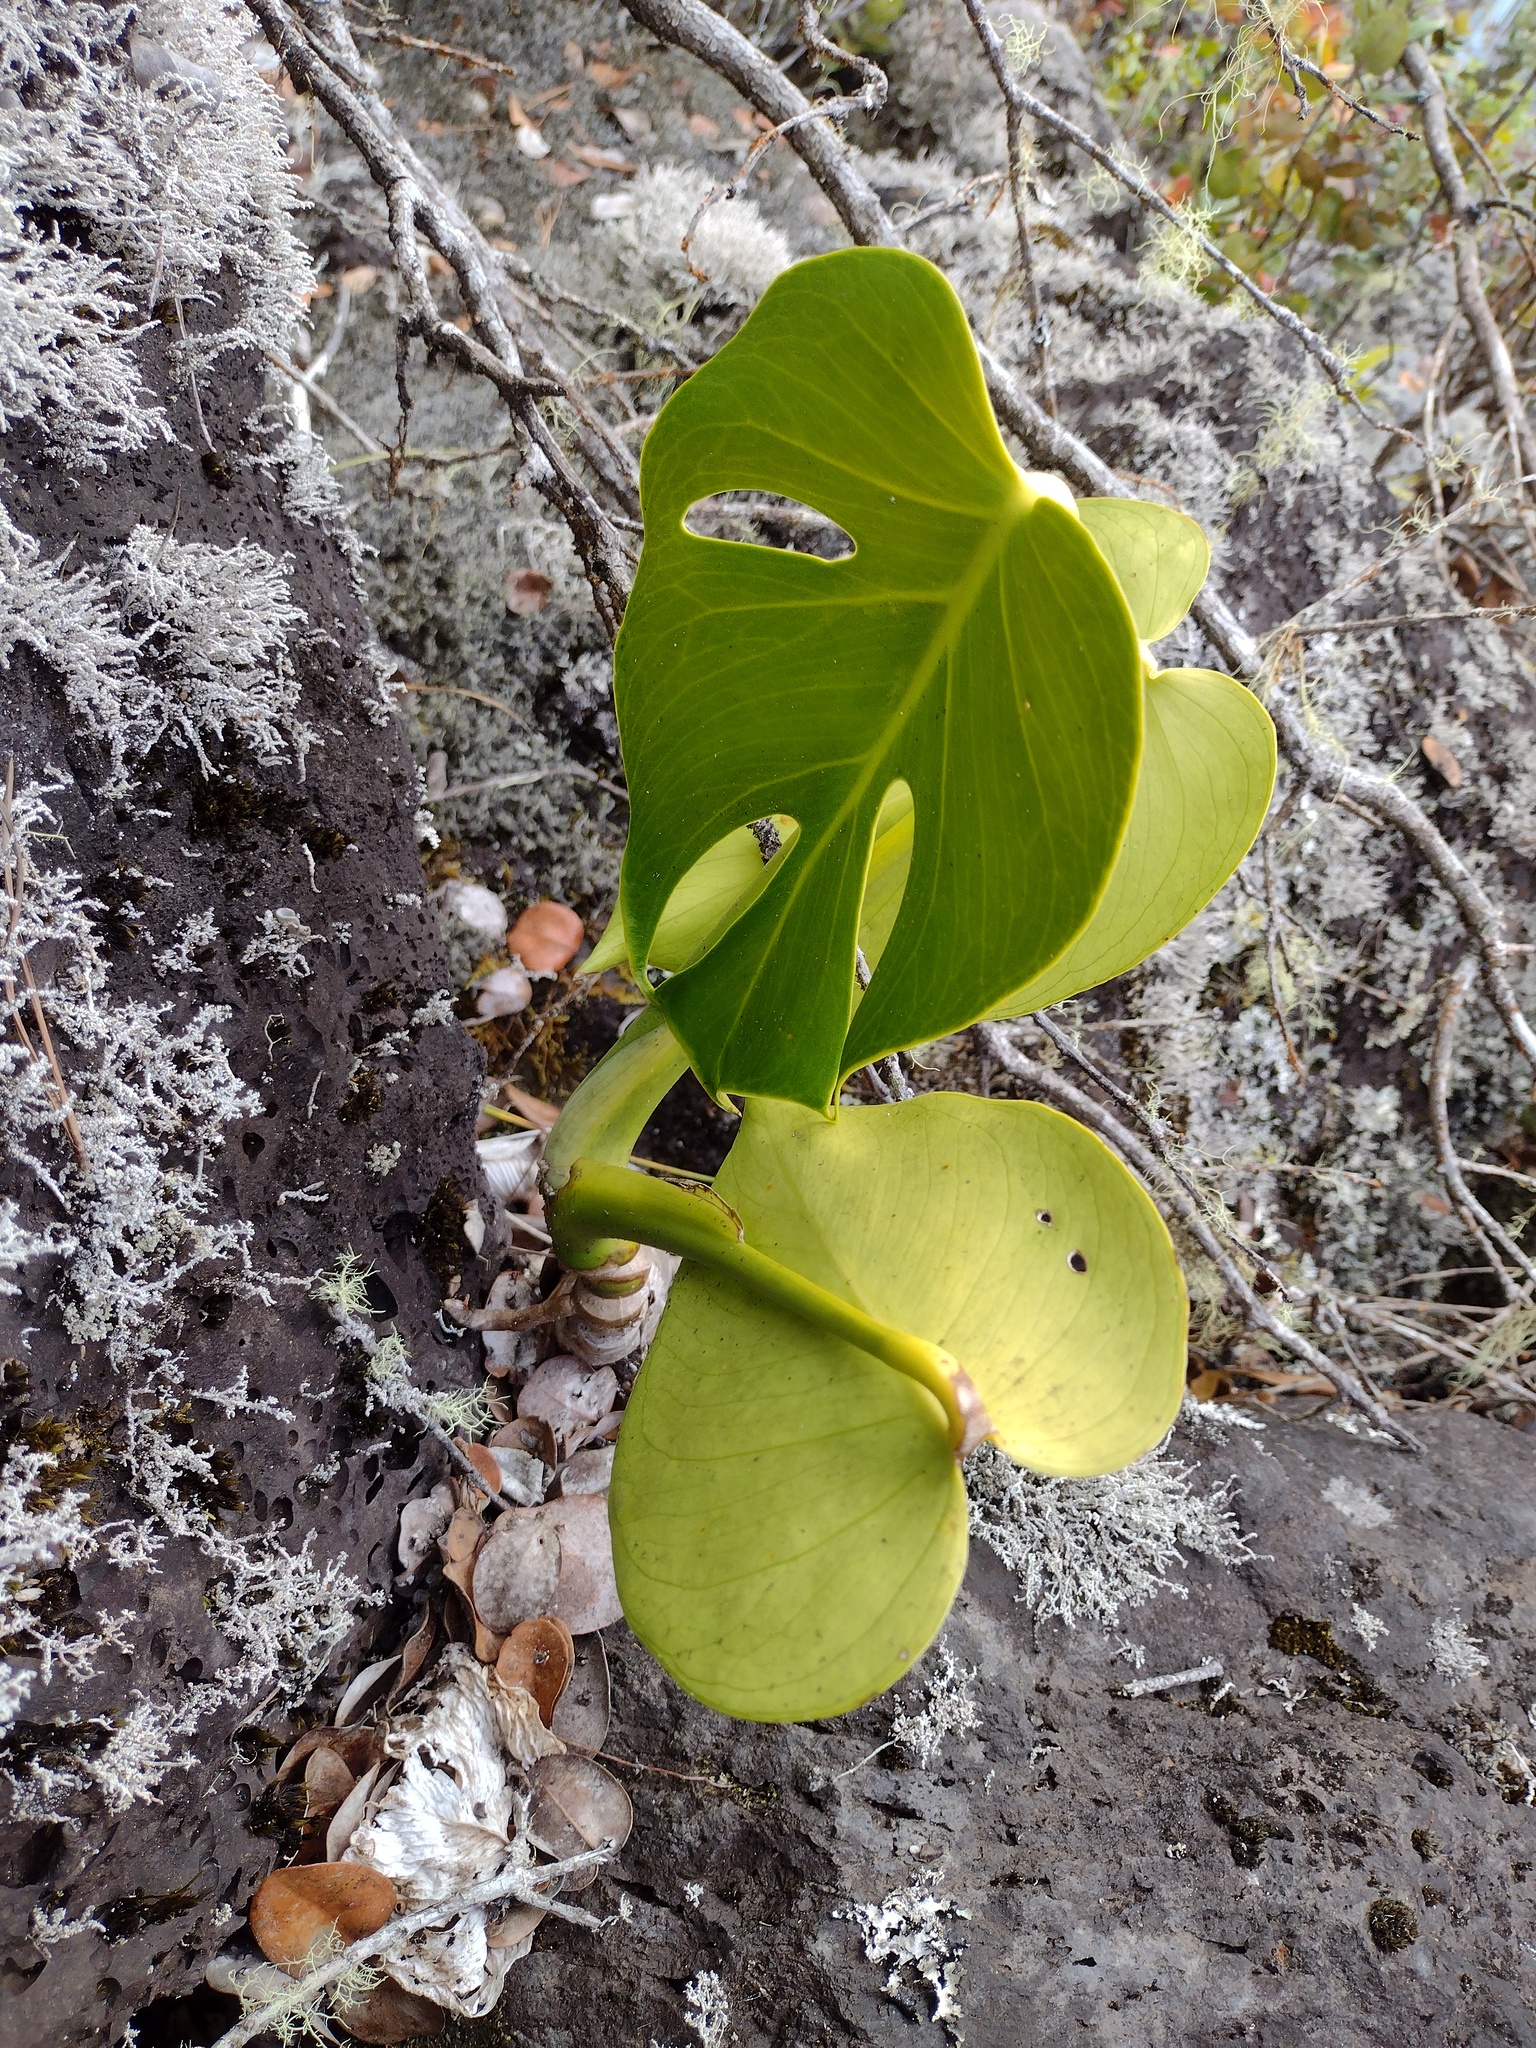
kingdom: Plantae
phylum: Tracheophyta
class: Liliopsida
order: Alismatales
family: Araceae
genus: Monstera
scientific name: Monstera deliciosa
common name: Cut-leaf-philodendron
